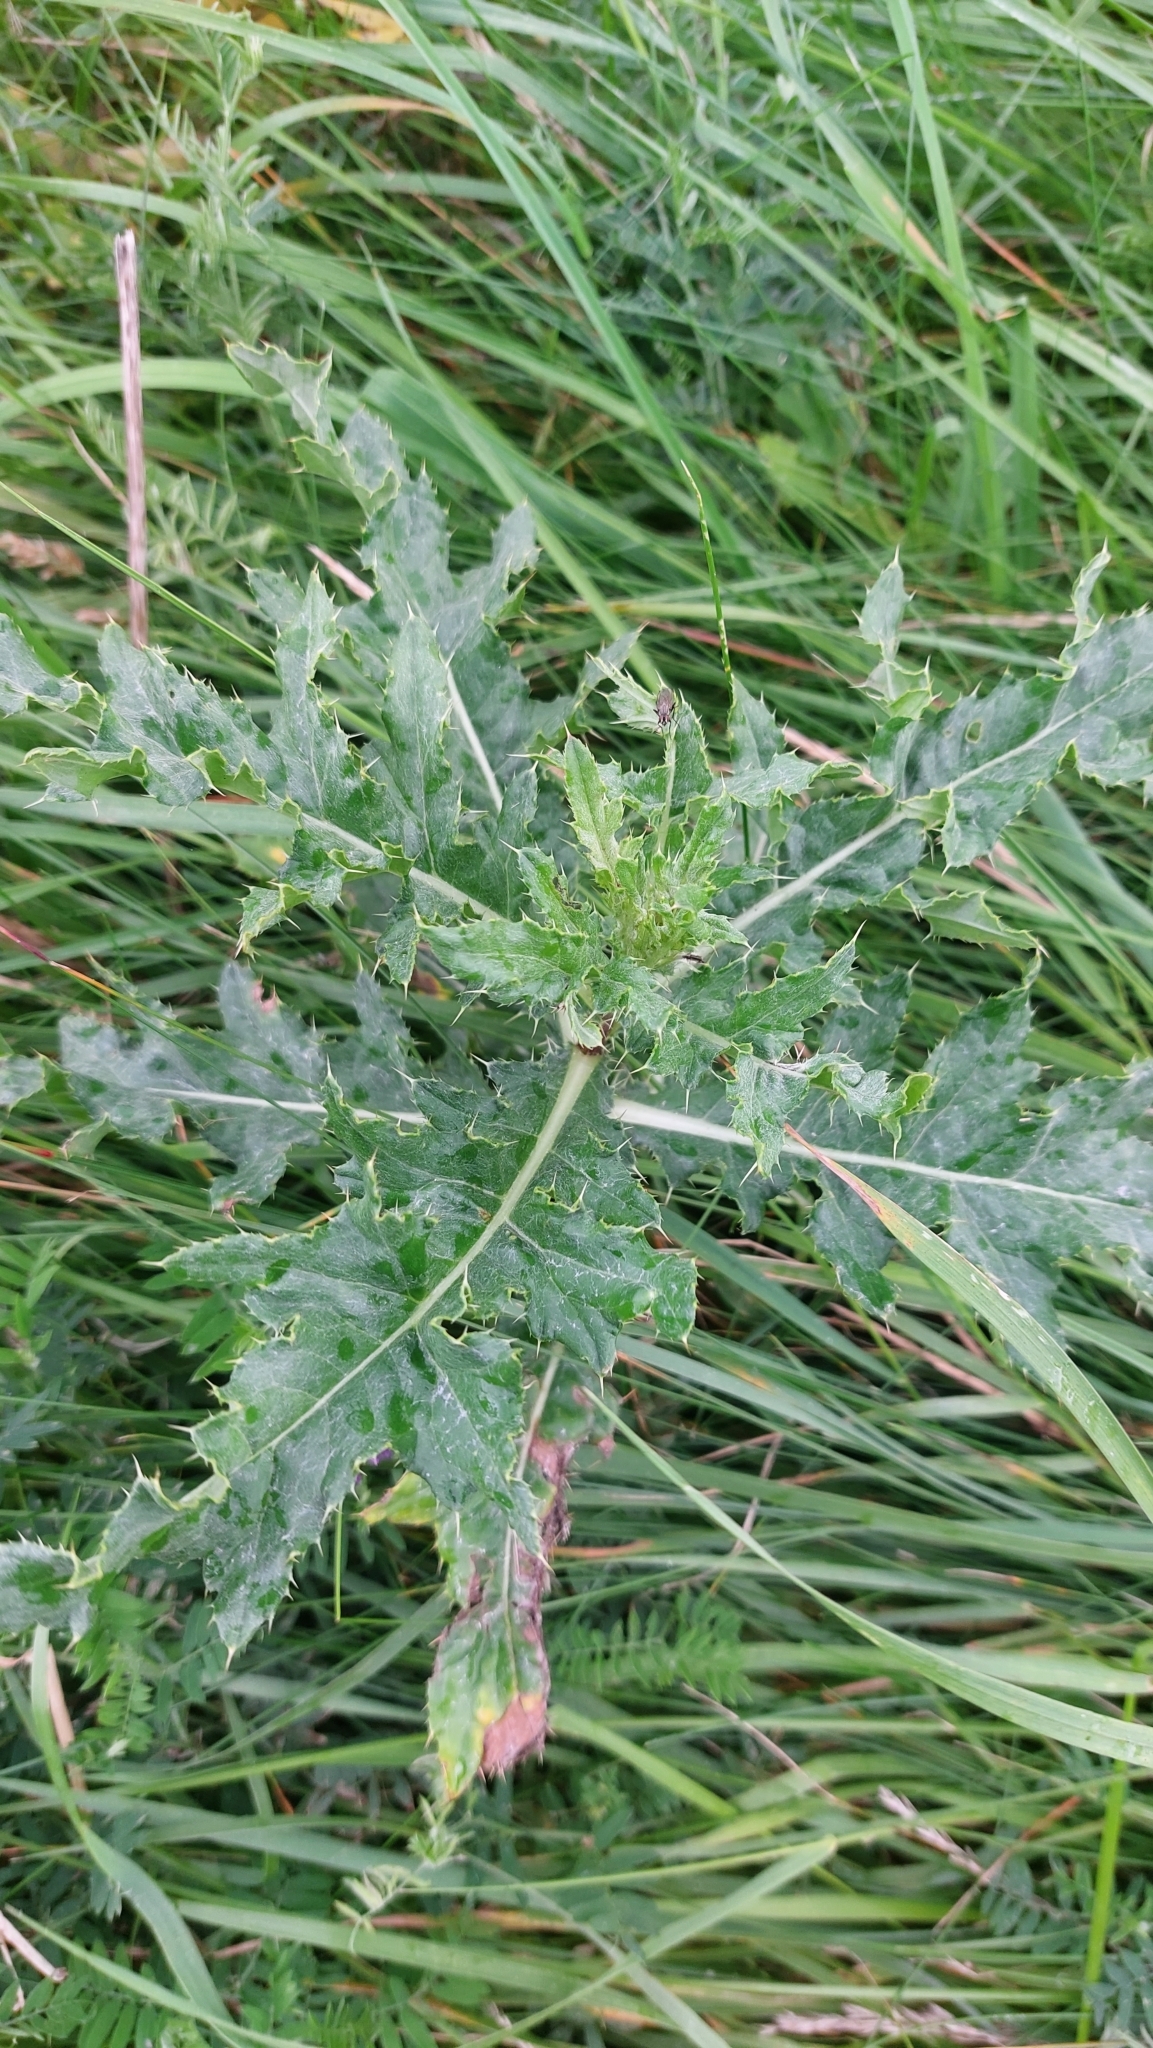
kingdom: Plantae
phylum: Tracheophyta
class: Magnoliopsida
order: Asterales
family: Asteraceae
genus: Cirsium
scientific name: Cirsium arvense
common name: Creeping thistle
